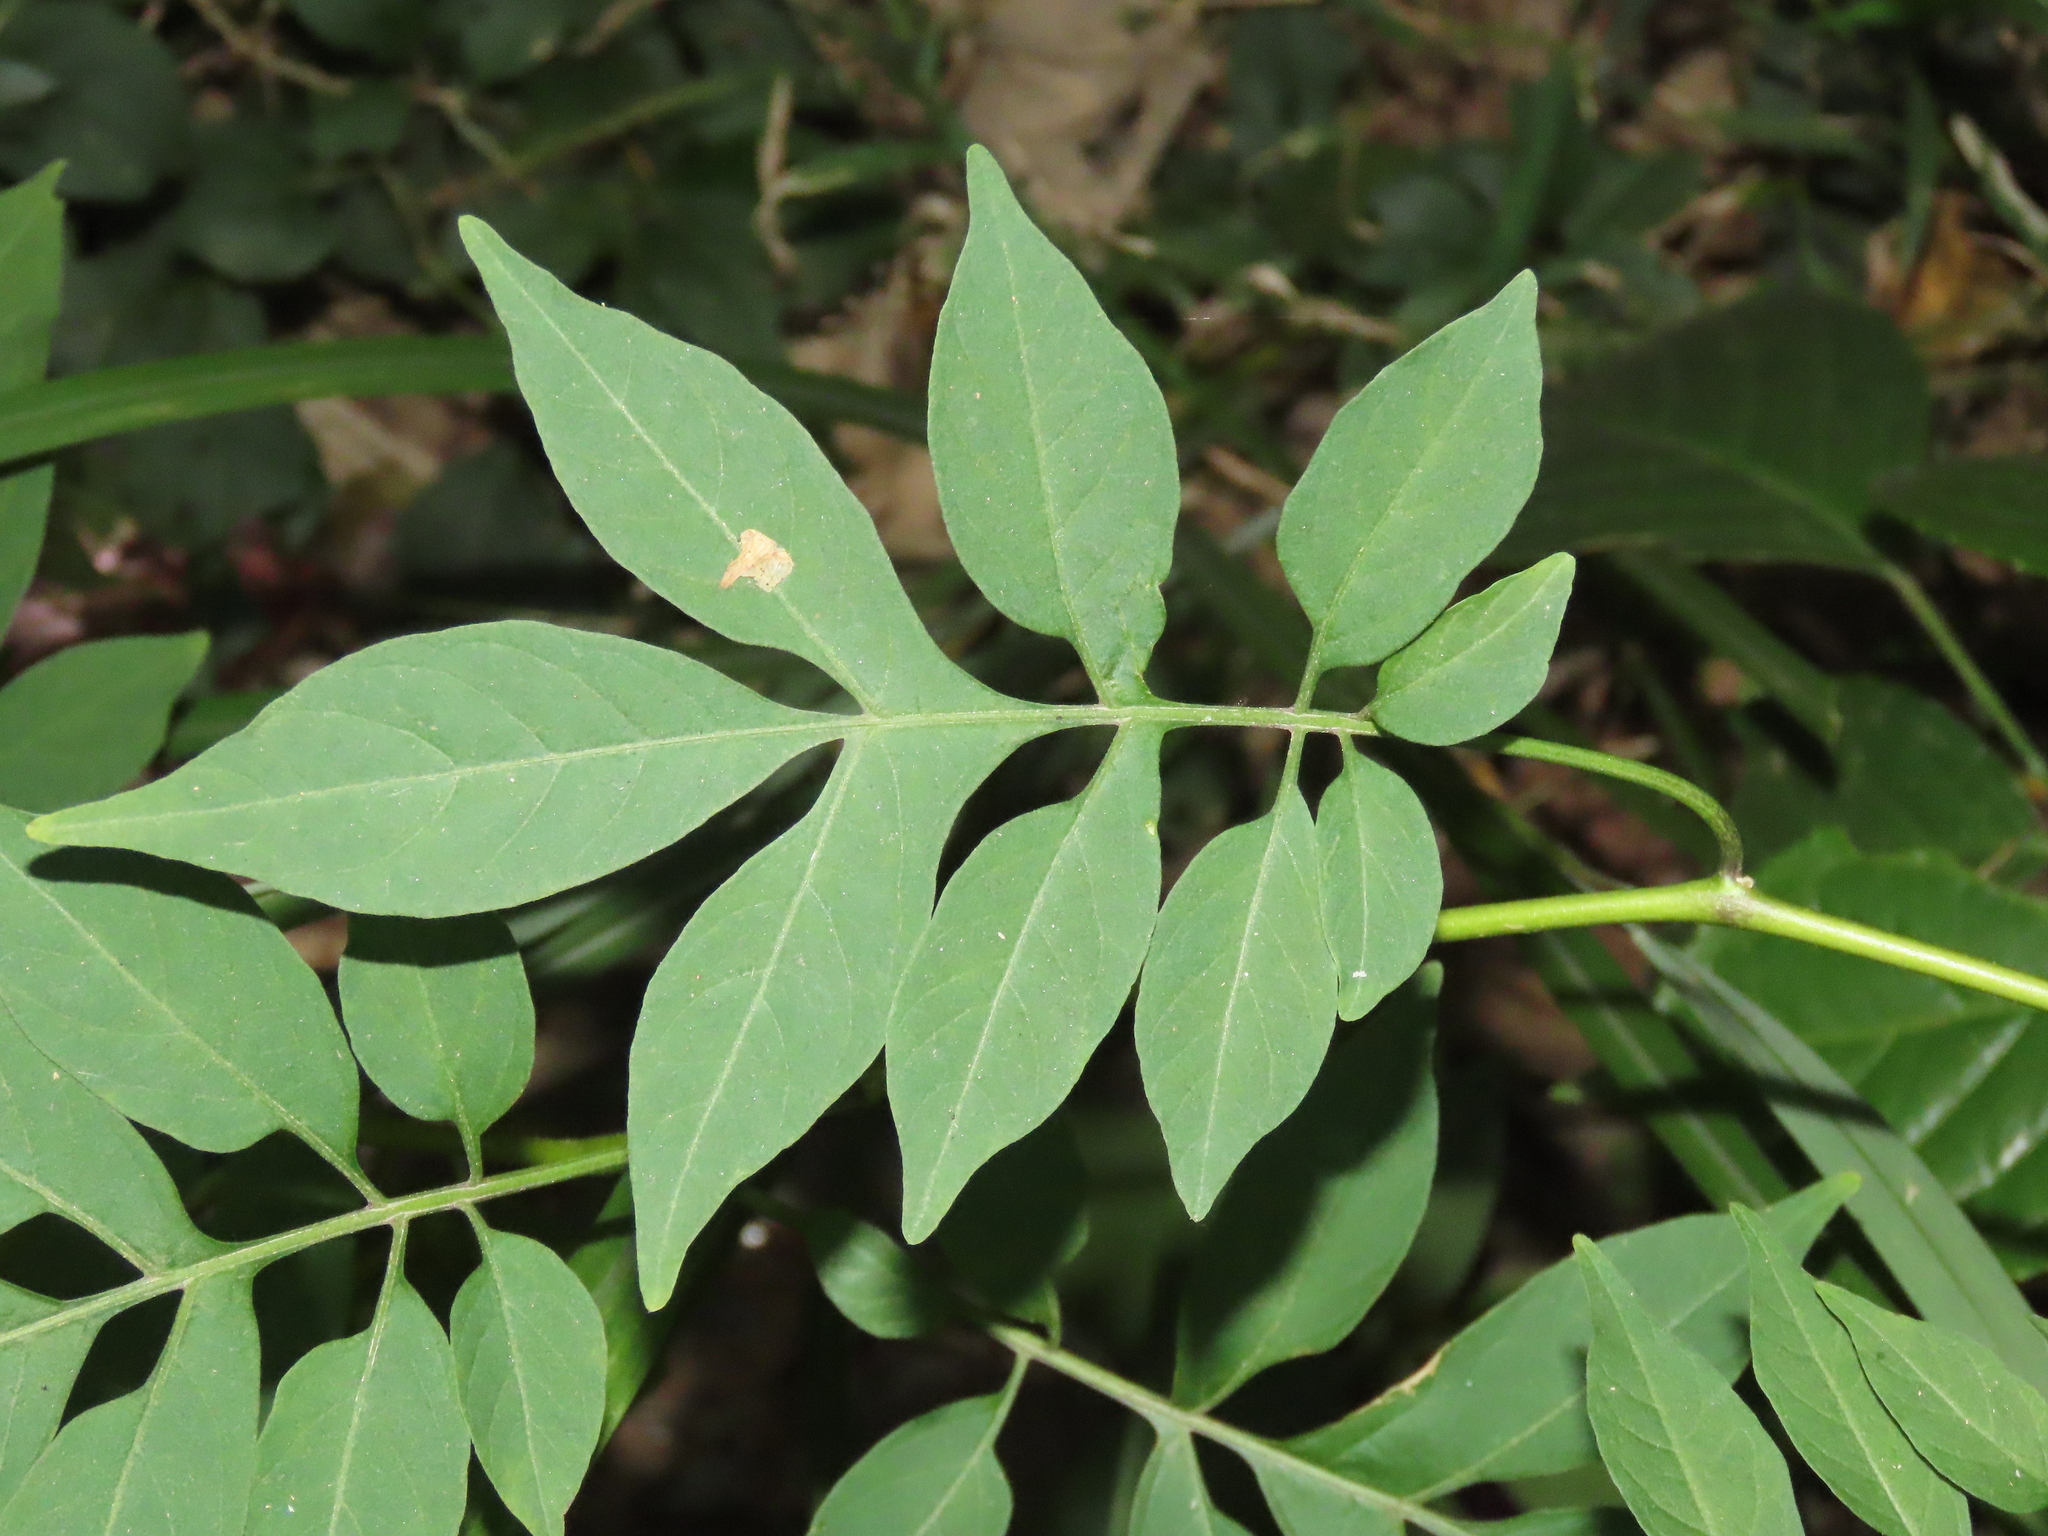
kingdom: Plantae
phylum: Tracheophyta
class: Magnoliopsida
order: Solanales
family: Solanaceae
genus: Solanum
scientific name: Solanum seaforthianum
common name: Brazilian nightshade
